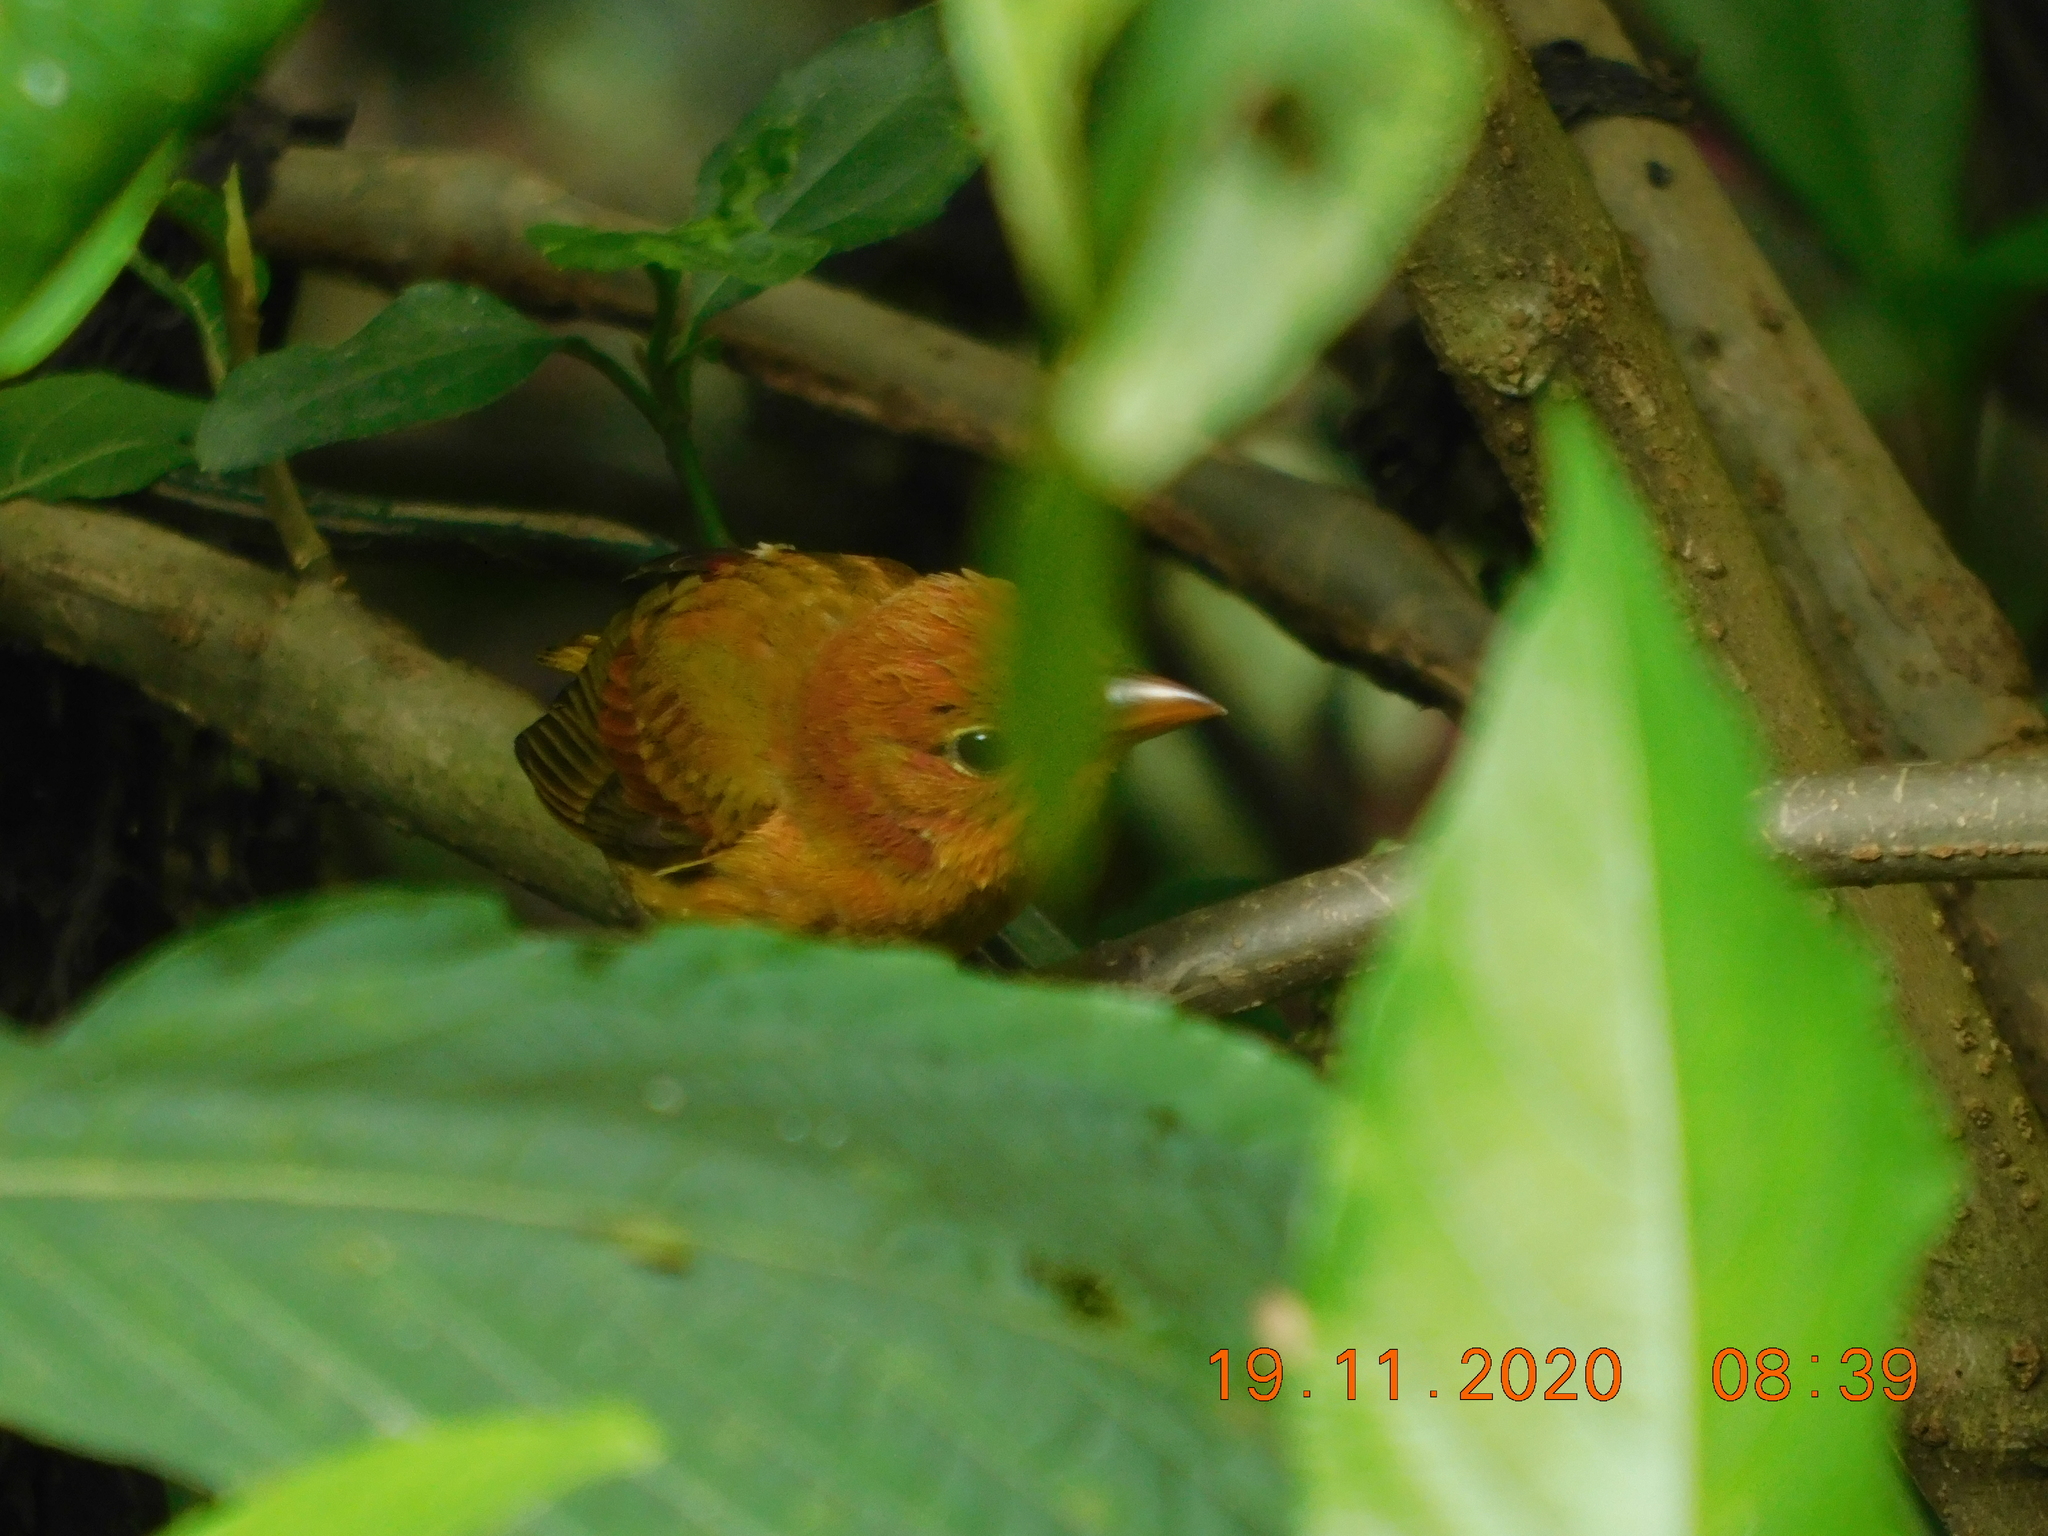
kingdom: Animalia
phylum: Chordata
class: Aves
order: Passeriformes
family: Cardinalidae
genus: Piranga
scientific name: Piranga rubra
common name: Summer tanager
